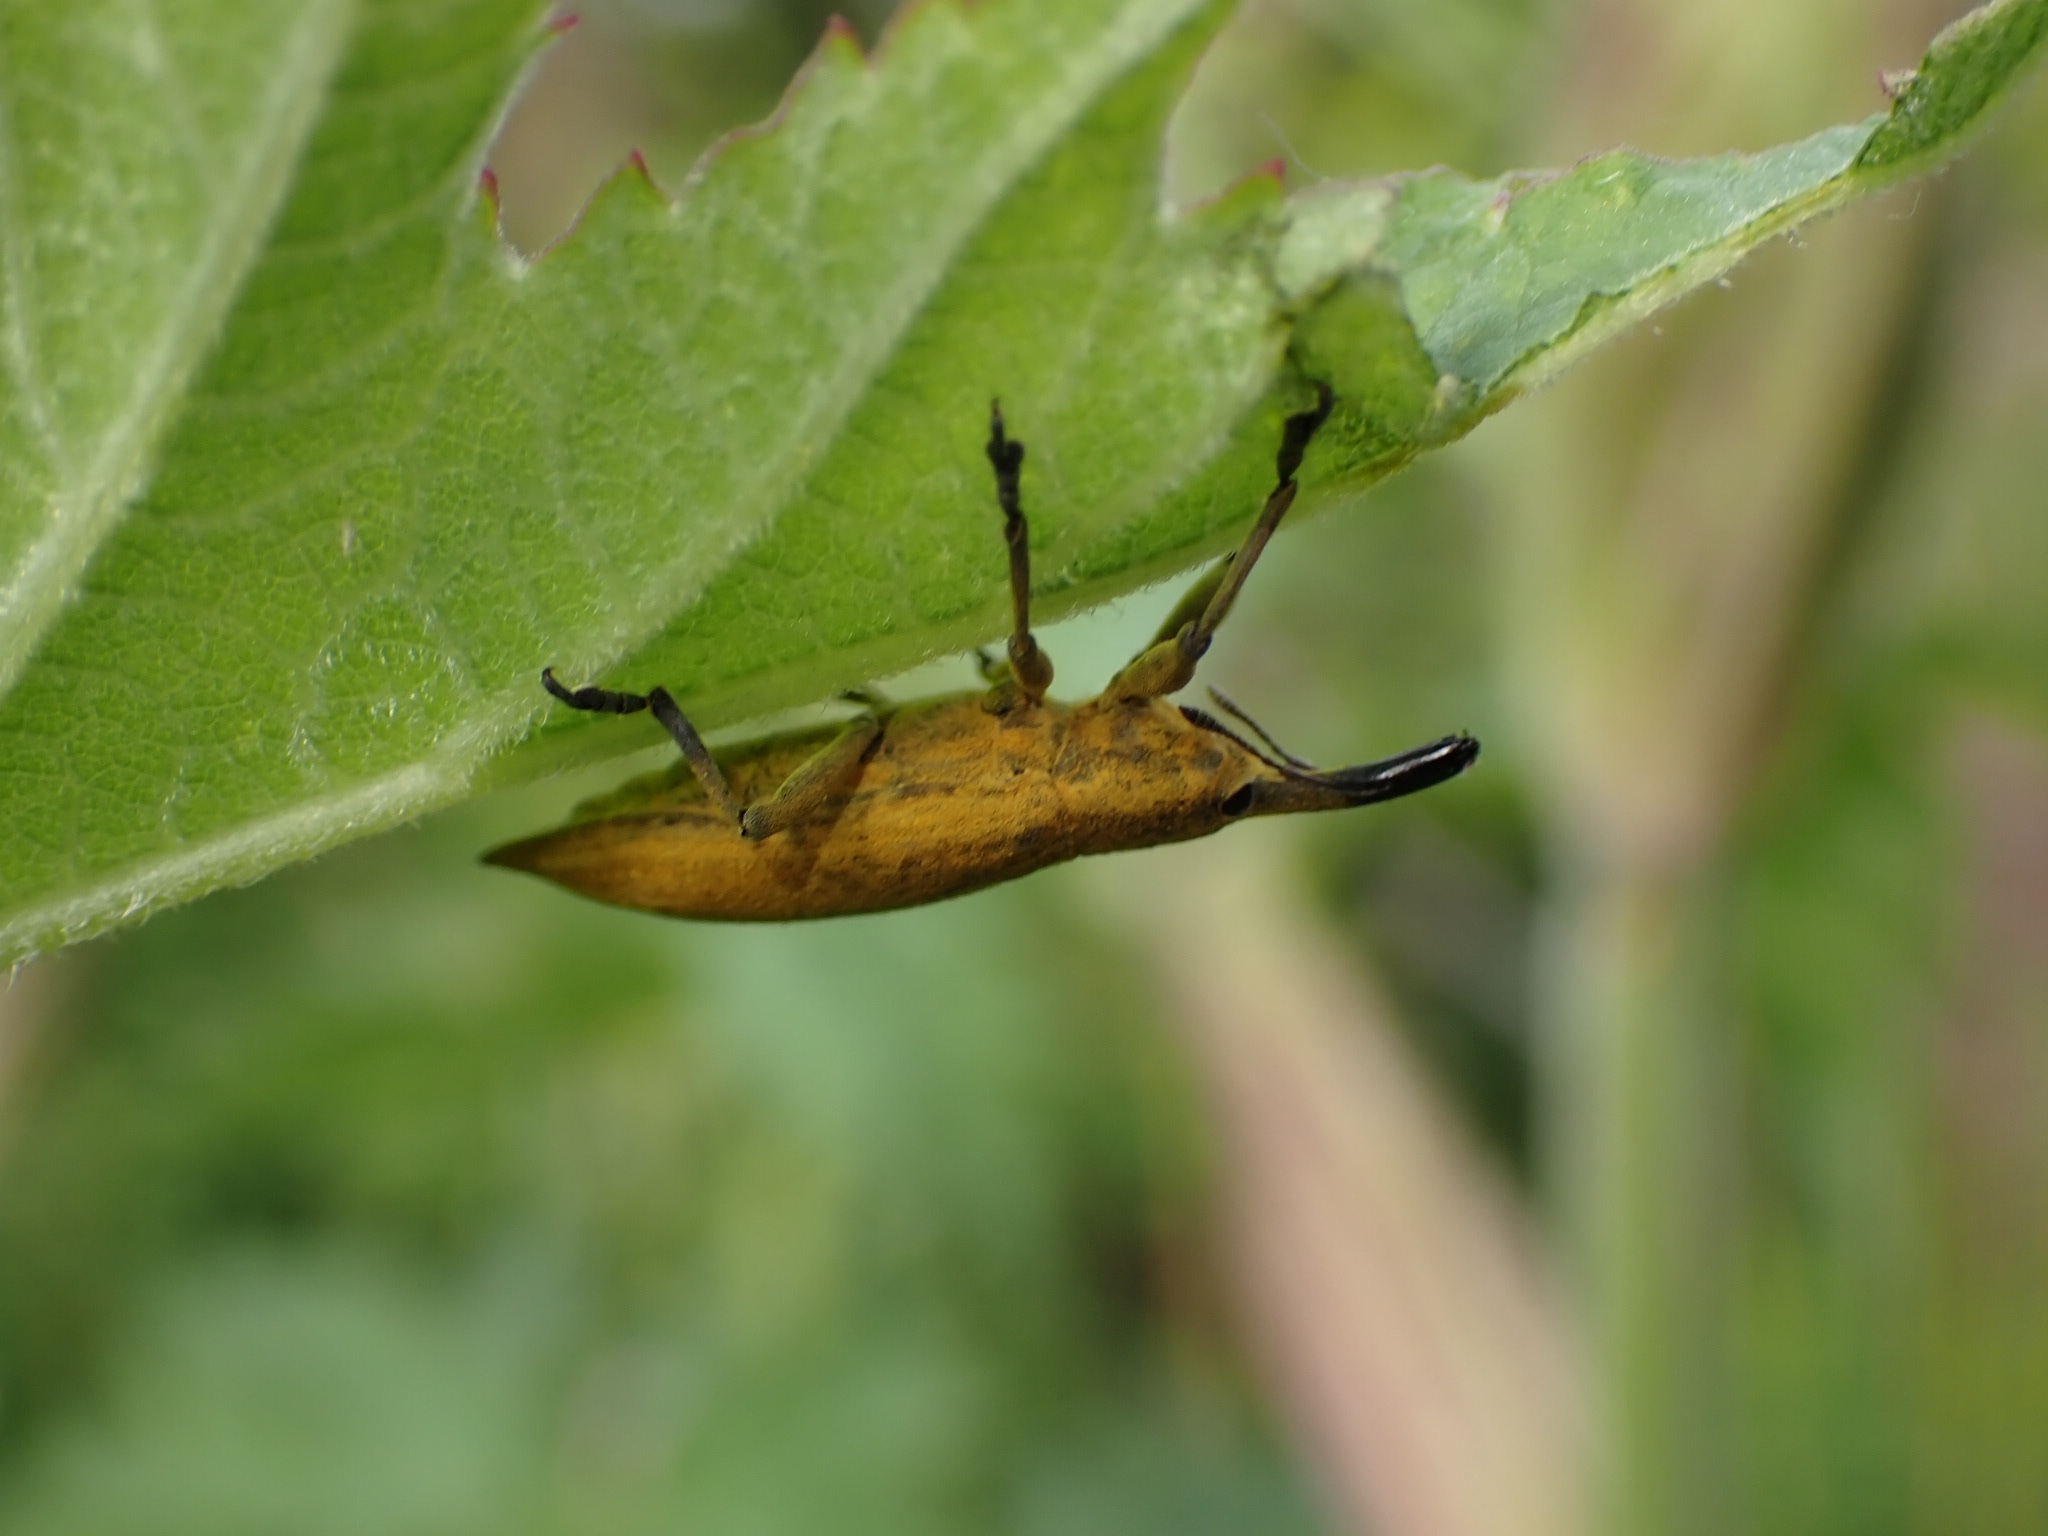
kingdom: Animalia
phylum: Arthropoda
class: Insecta
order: Coleoptera
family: Curculionidae
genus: Lixus
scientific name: Lixus iridis
